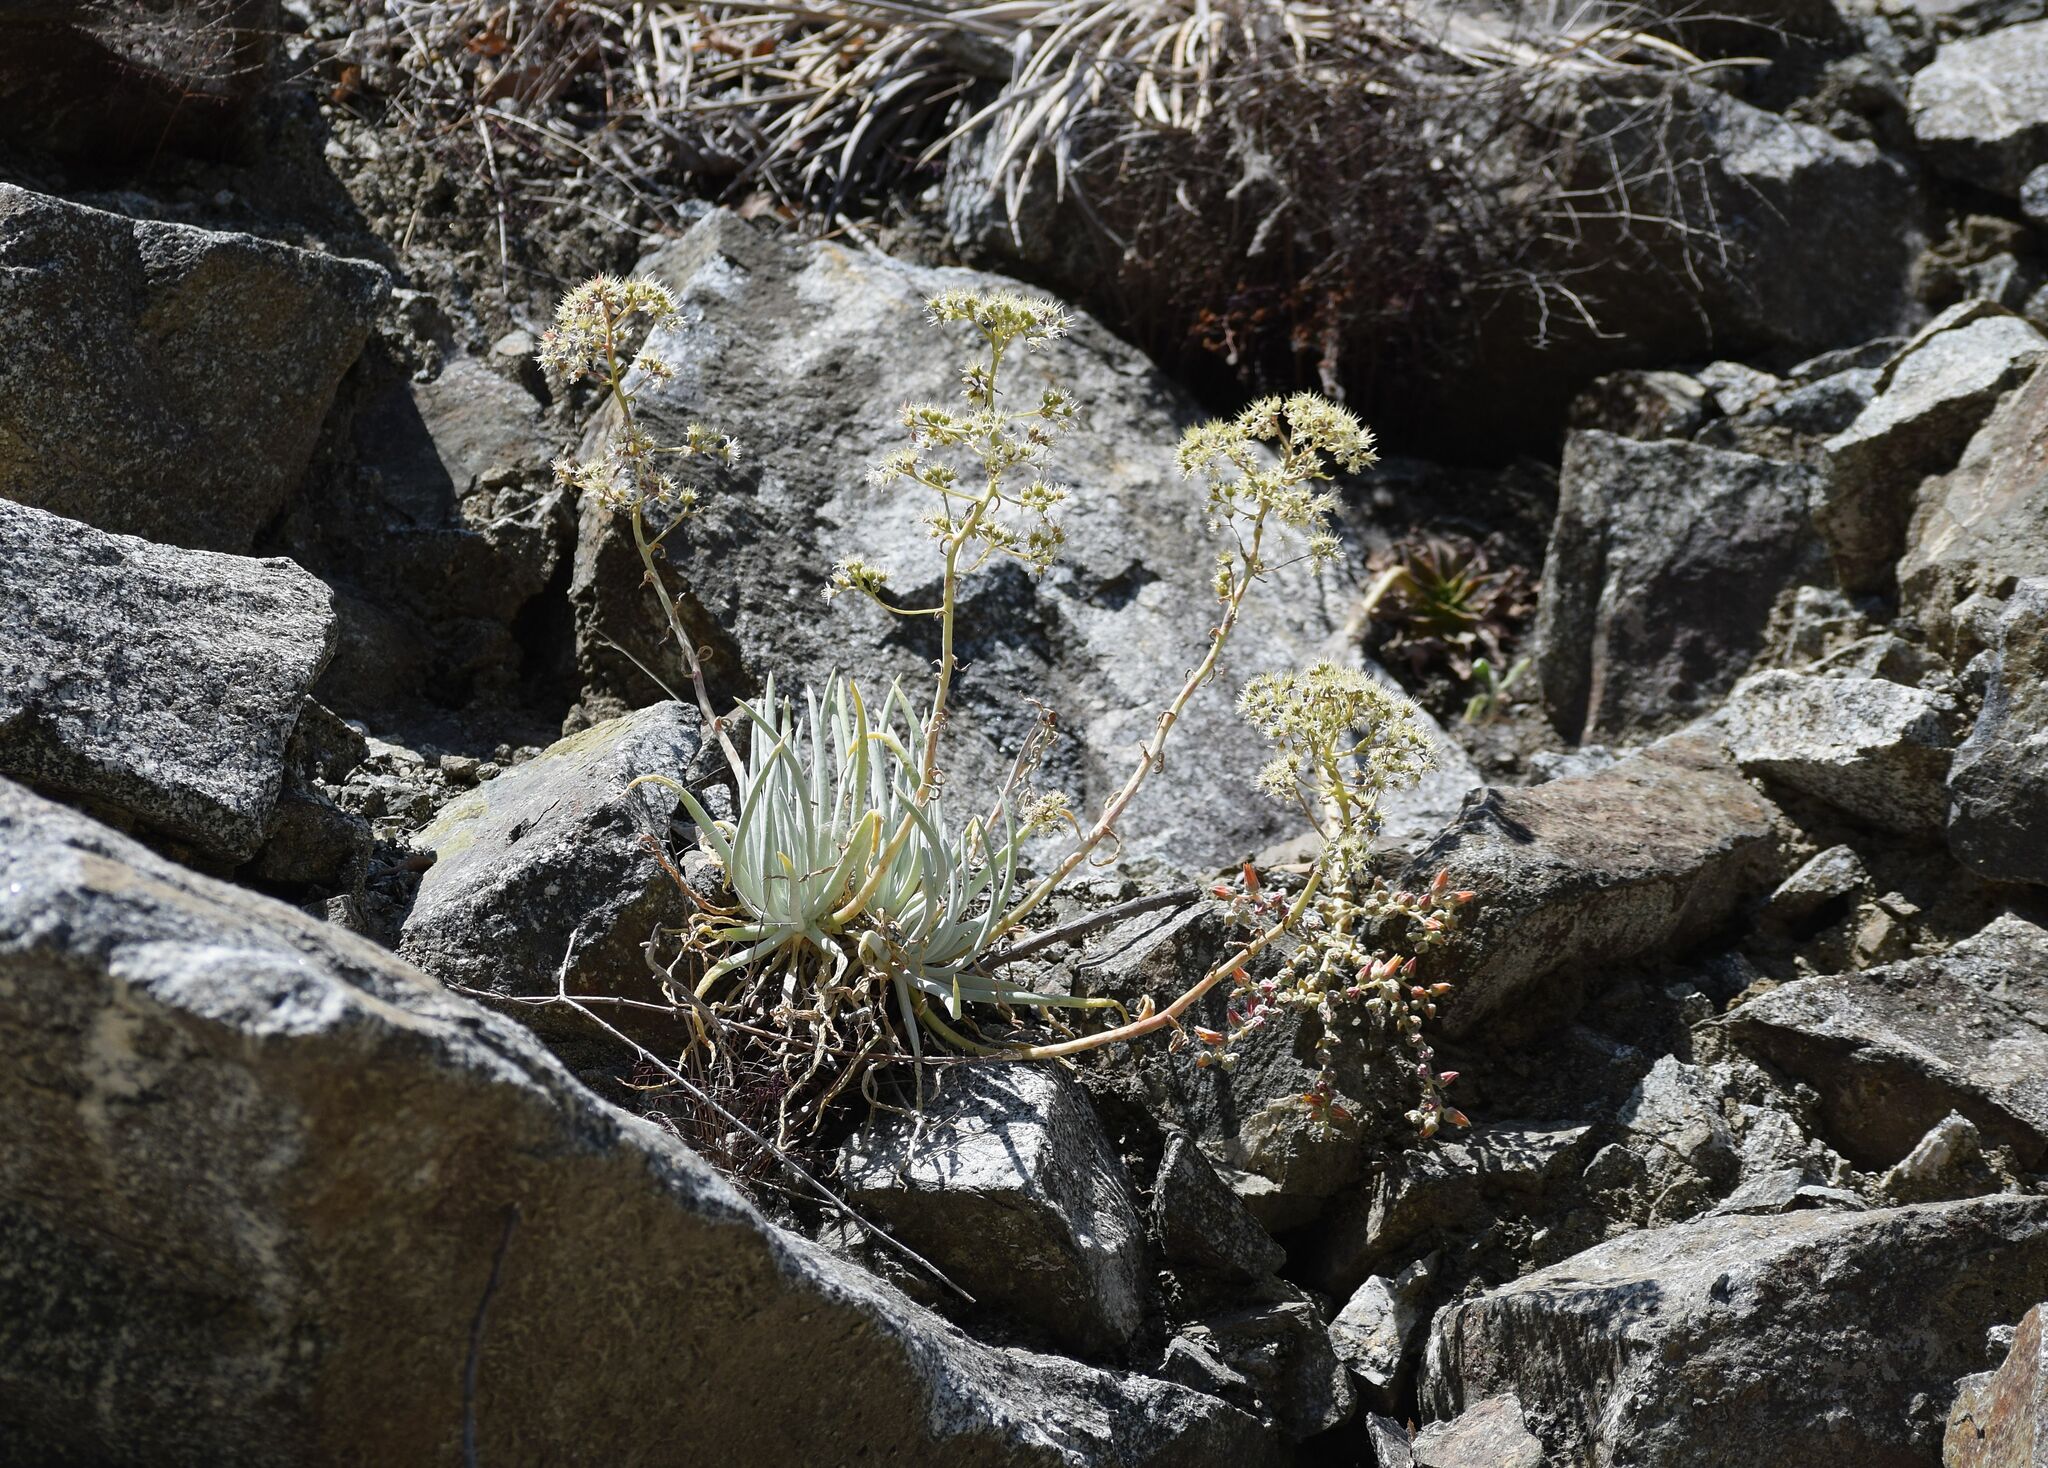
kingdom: Plantae
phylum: Tracheophyta
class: Magnoliopsida
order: Saxifragales
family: Crassulaceae
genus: Dudleya
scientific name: Dudleya densiflora
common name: San gabriel mountains dudleya
